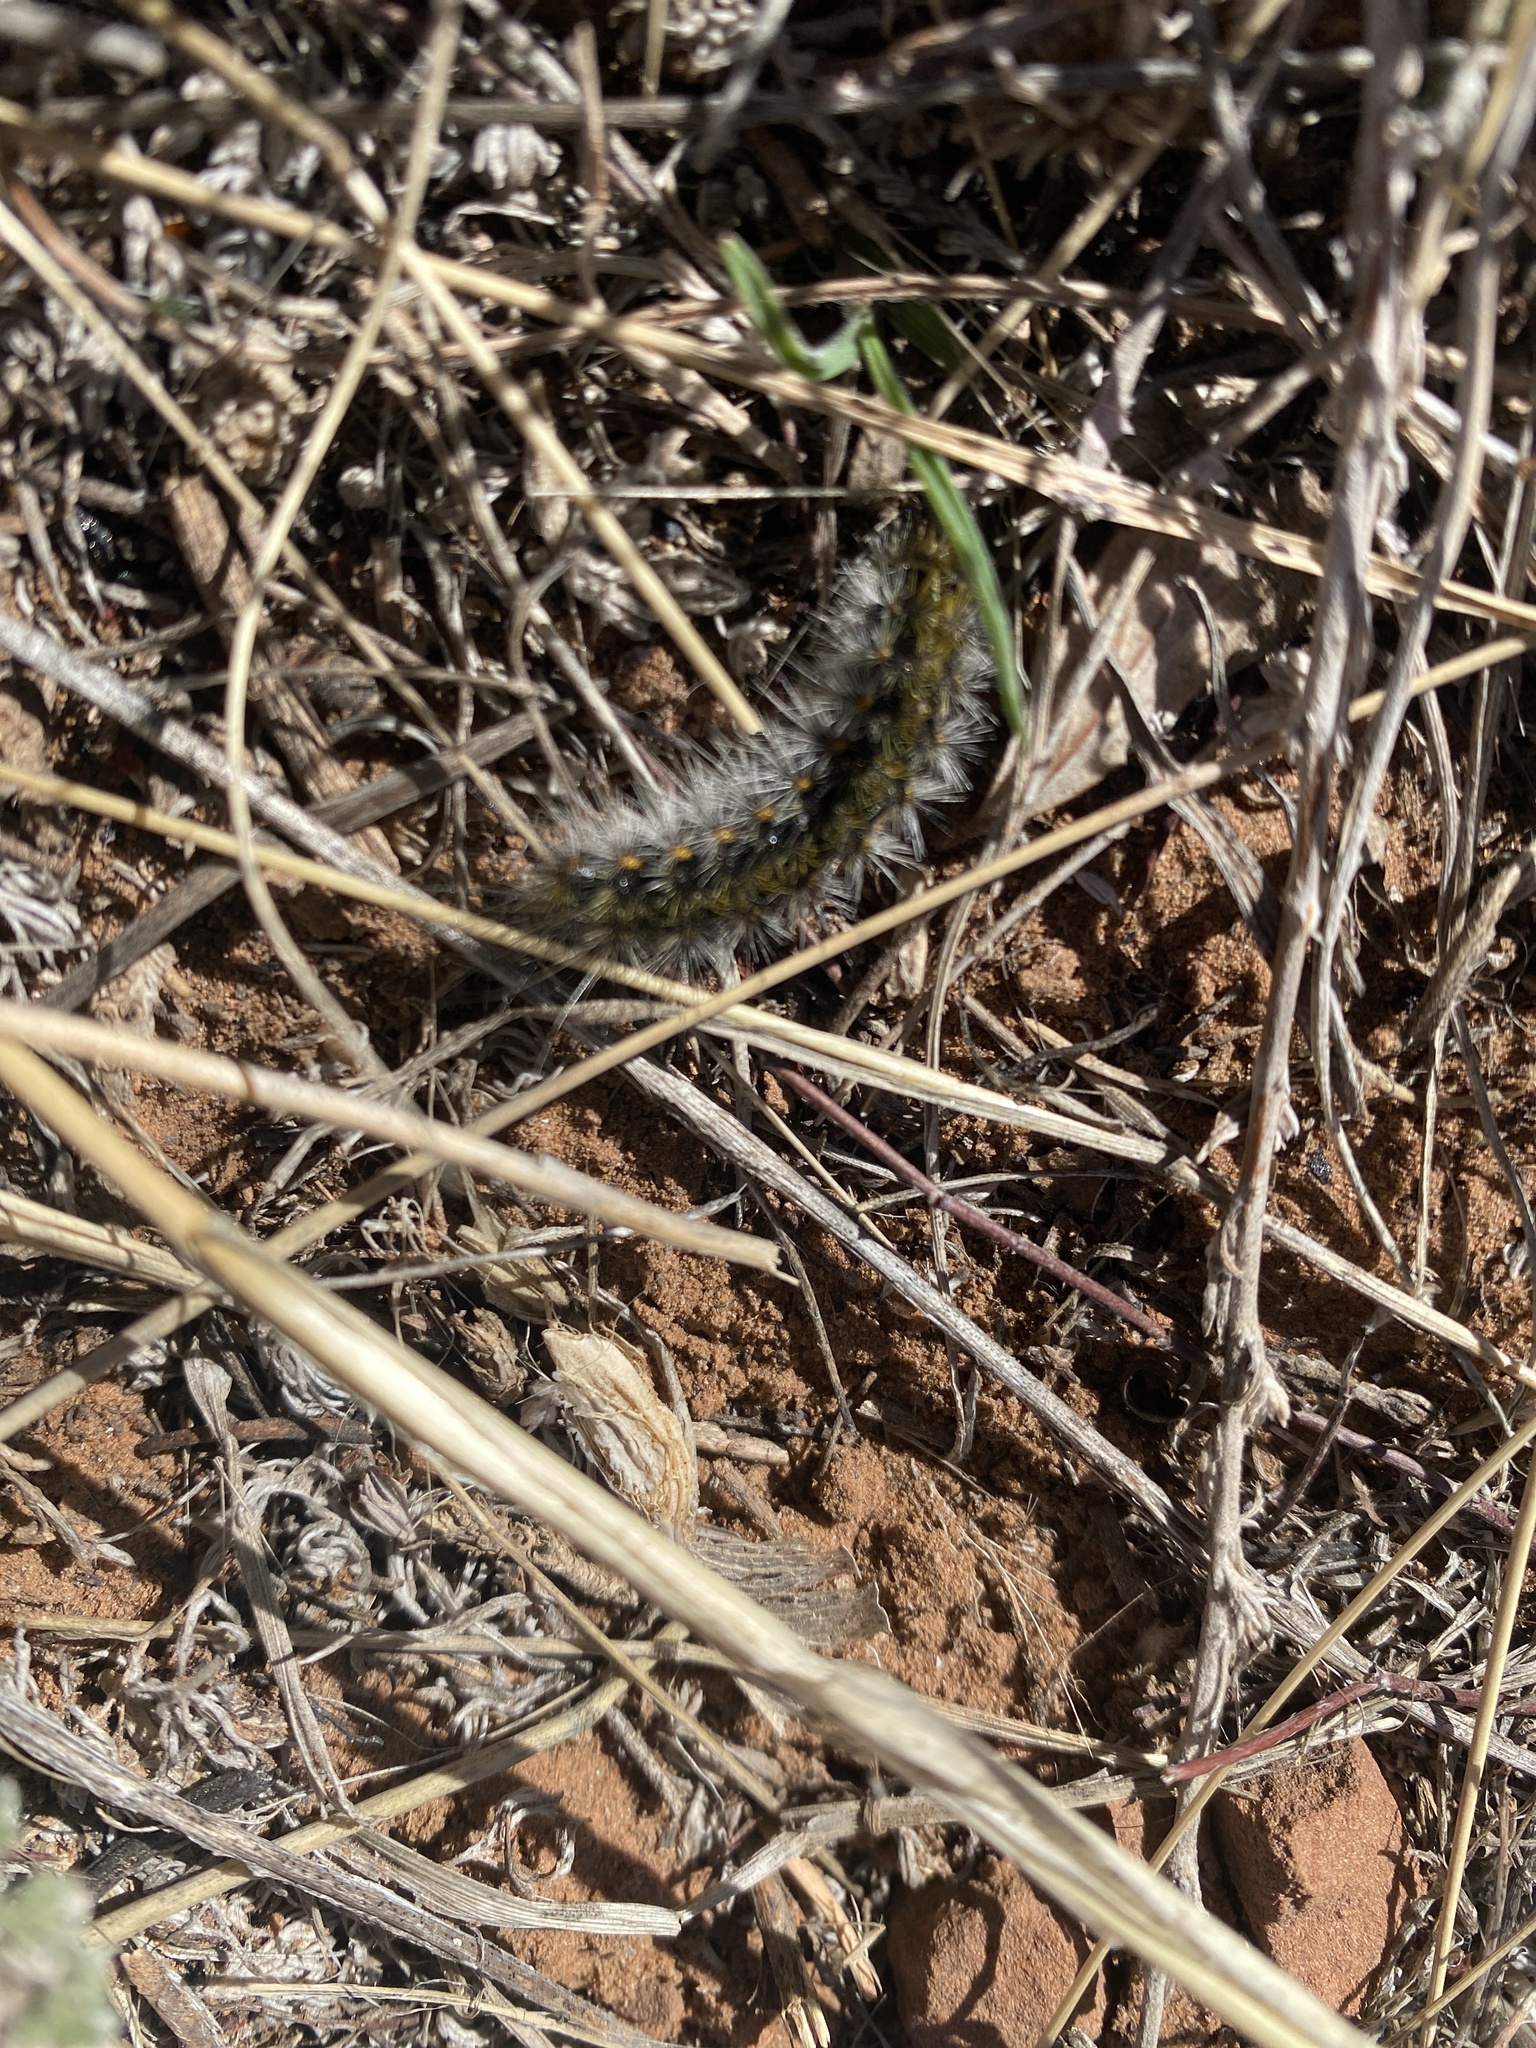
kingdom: Animalia
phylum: Arthropoda
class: Insecta
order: Lepidoptera
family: Erebidae
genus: Lophocampa
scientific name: Lophocampa argentata
